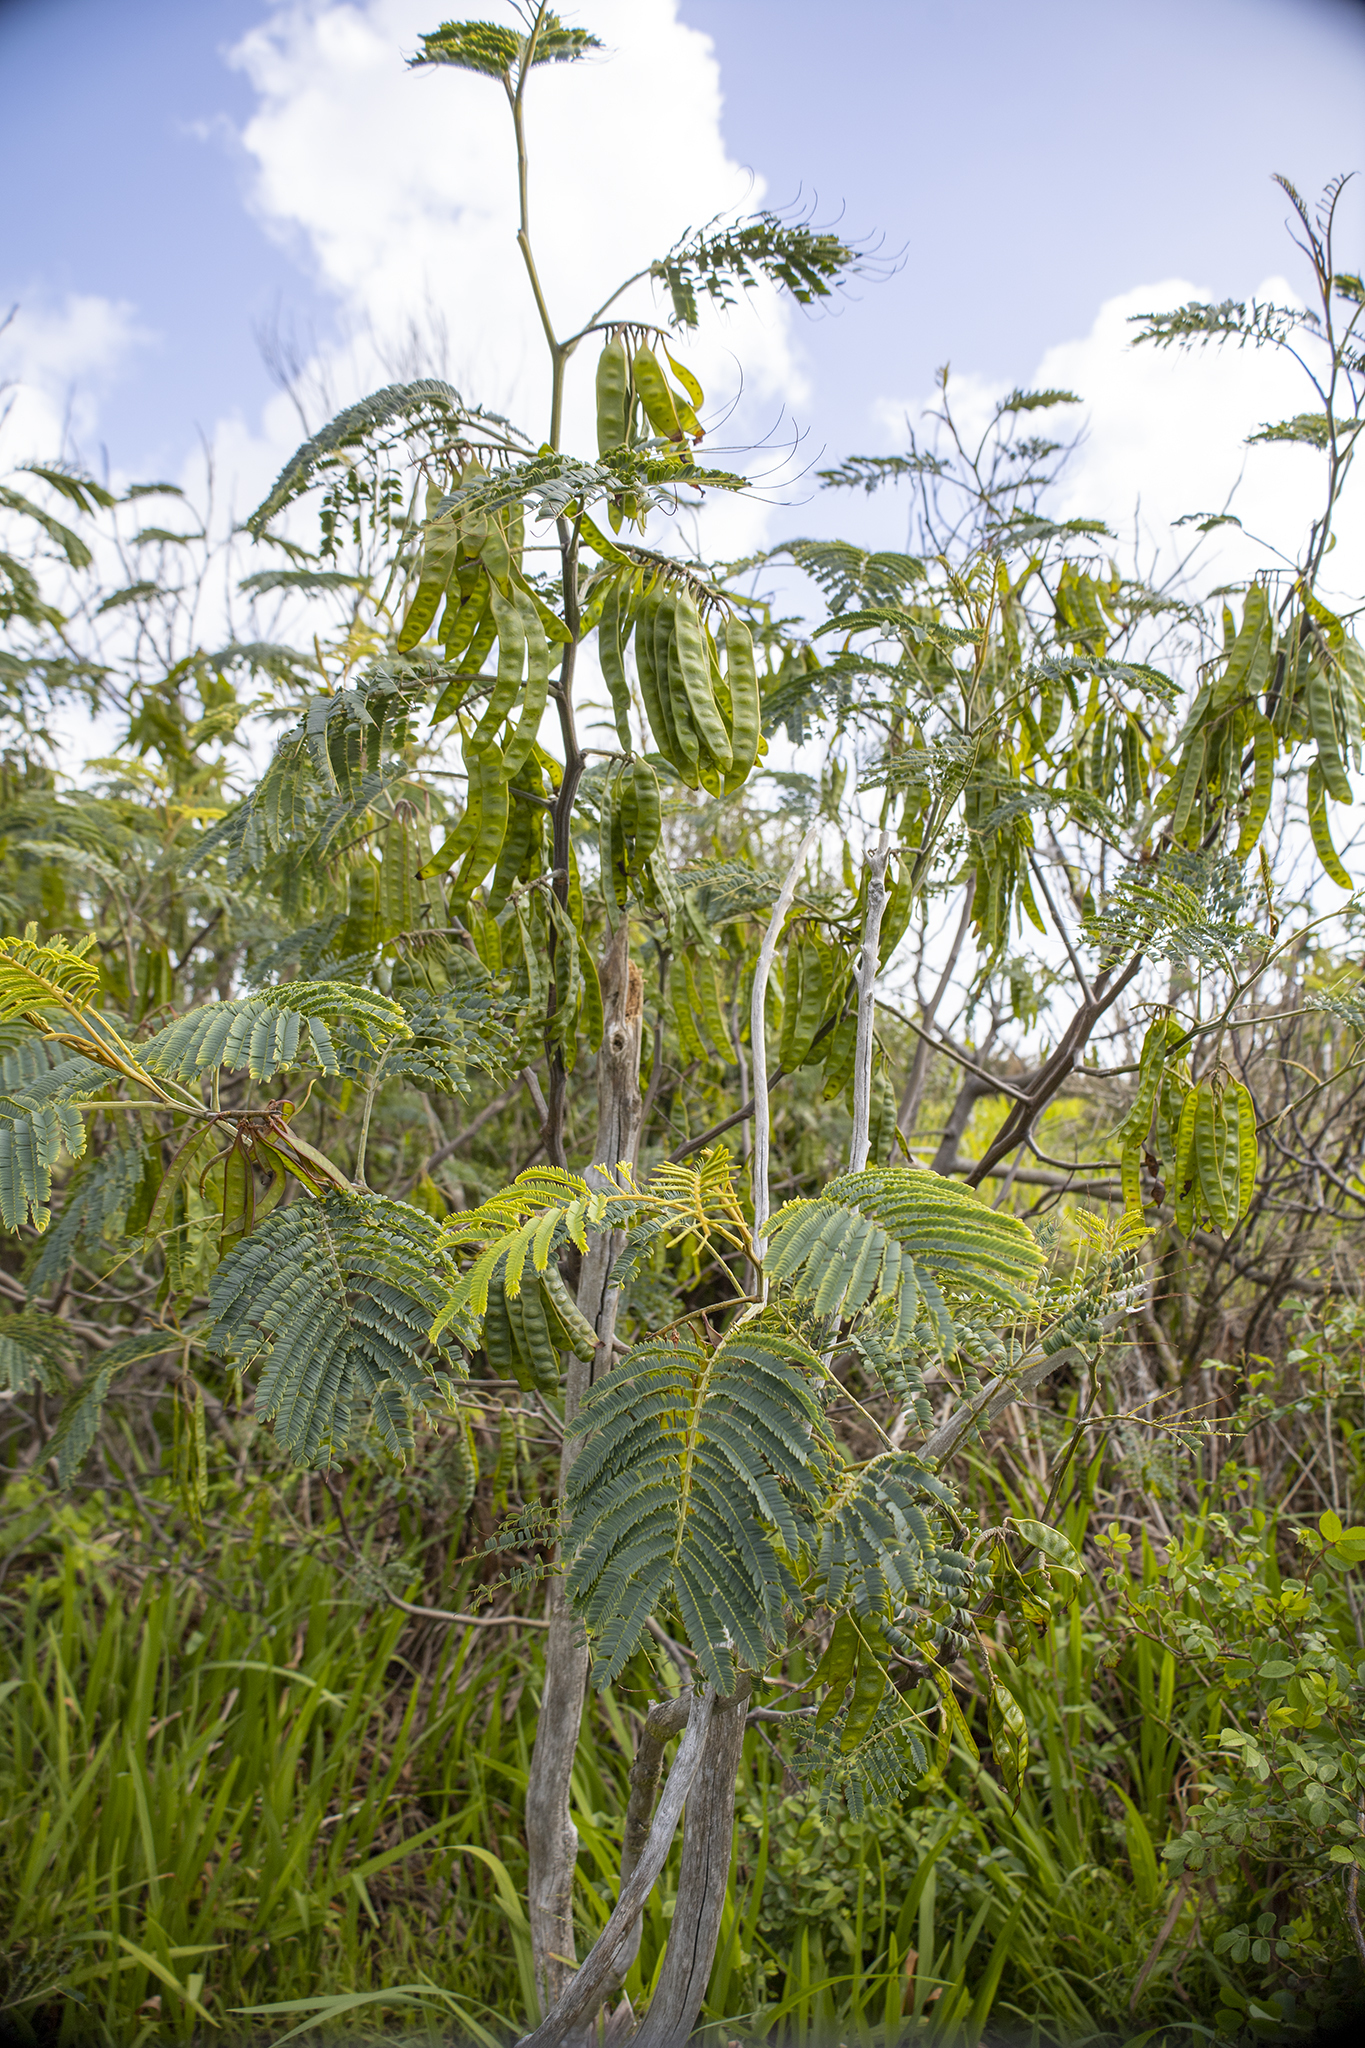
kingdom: Plantae
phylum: Tracheophyta
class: Magnoliopsida
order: Fabales
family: Fabaceae
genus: Paraserianthes
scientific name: Paraserianthes lophantha
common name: Plume albizia
